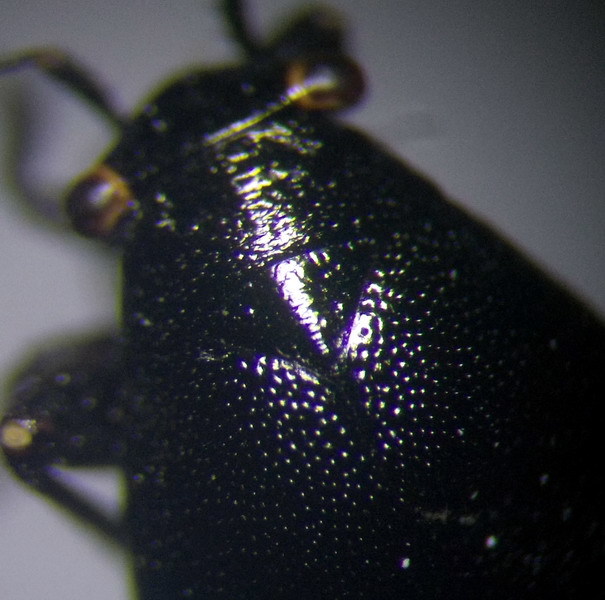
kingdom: Animalia
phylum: Arthropoda
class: Insecta
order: Hemiptera
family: Miridae
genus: Euryopicoris
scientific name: Euryopicoris nitidus
